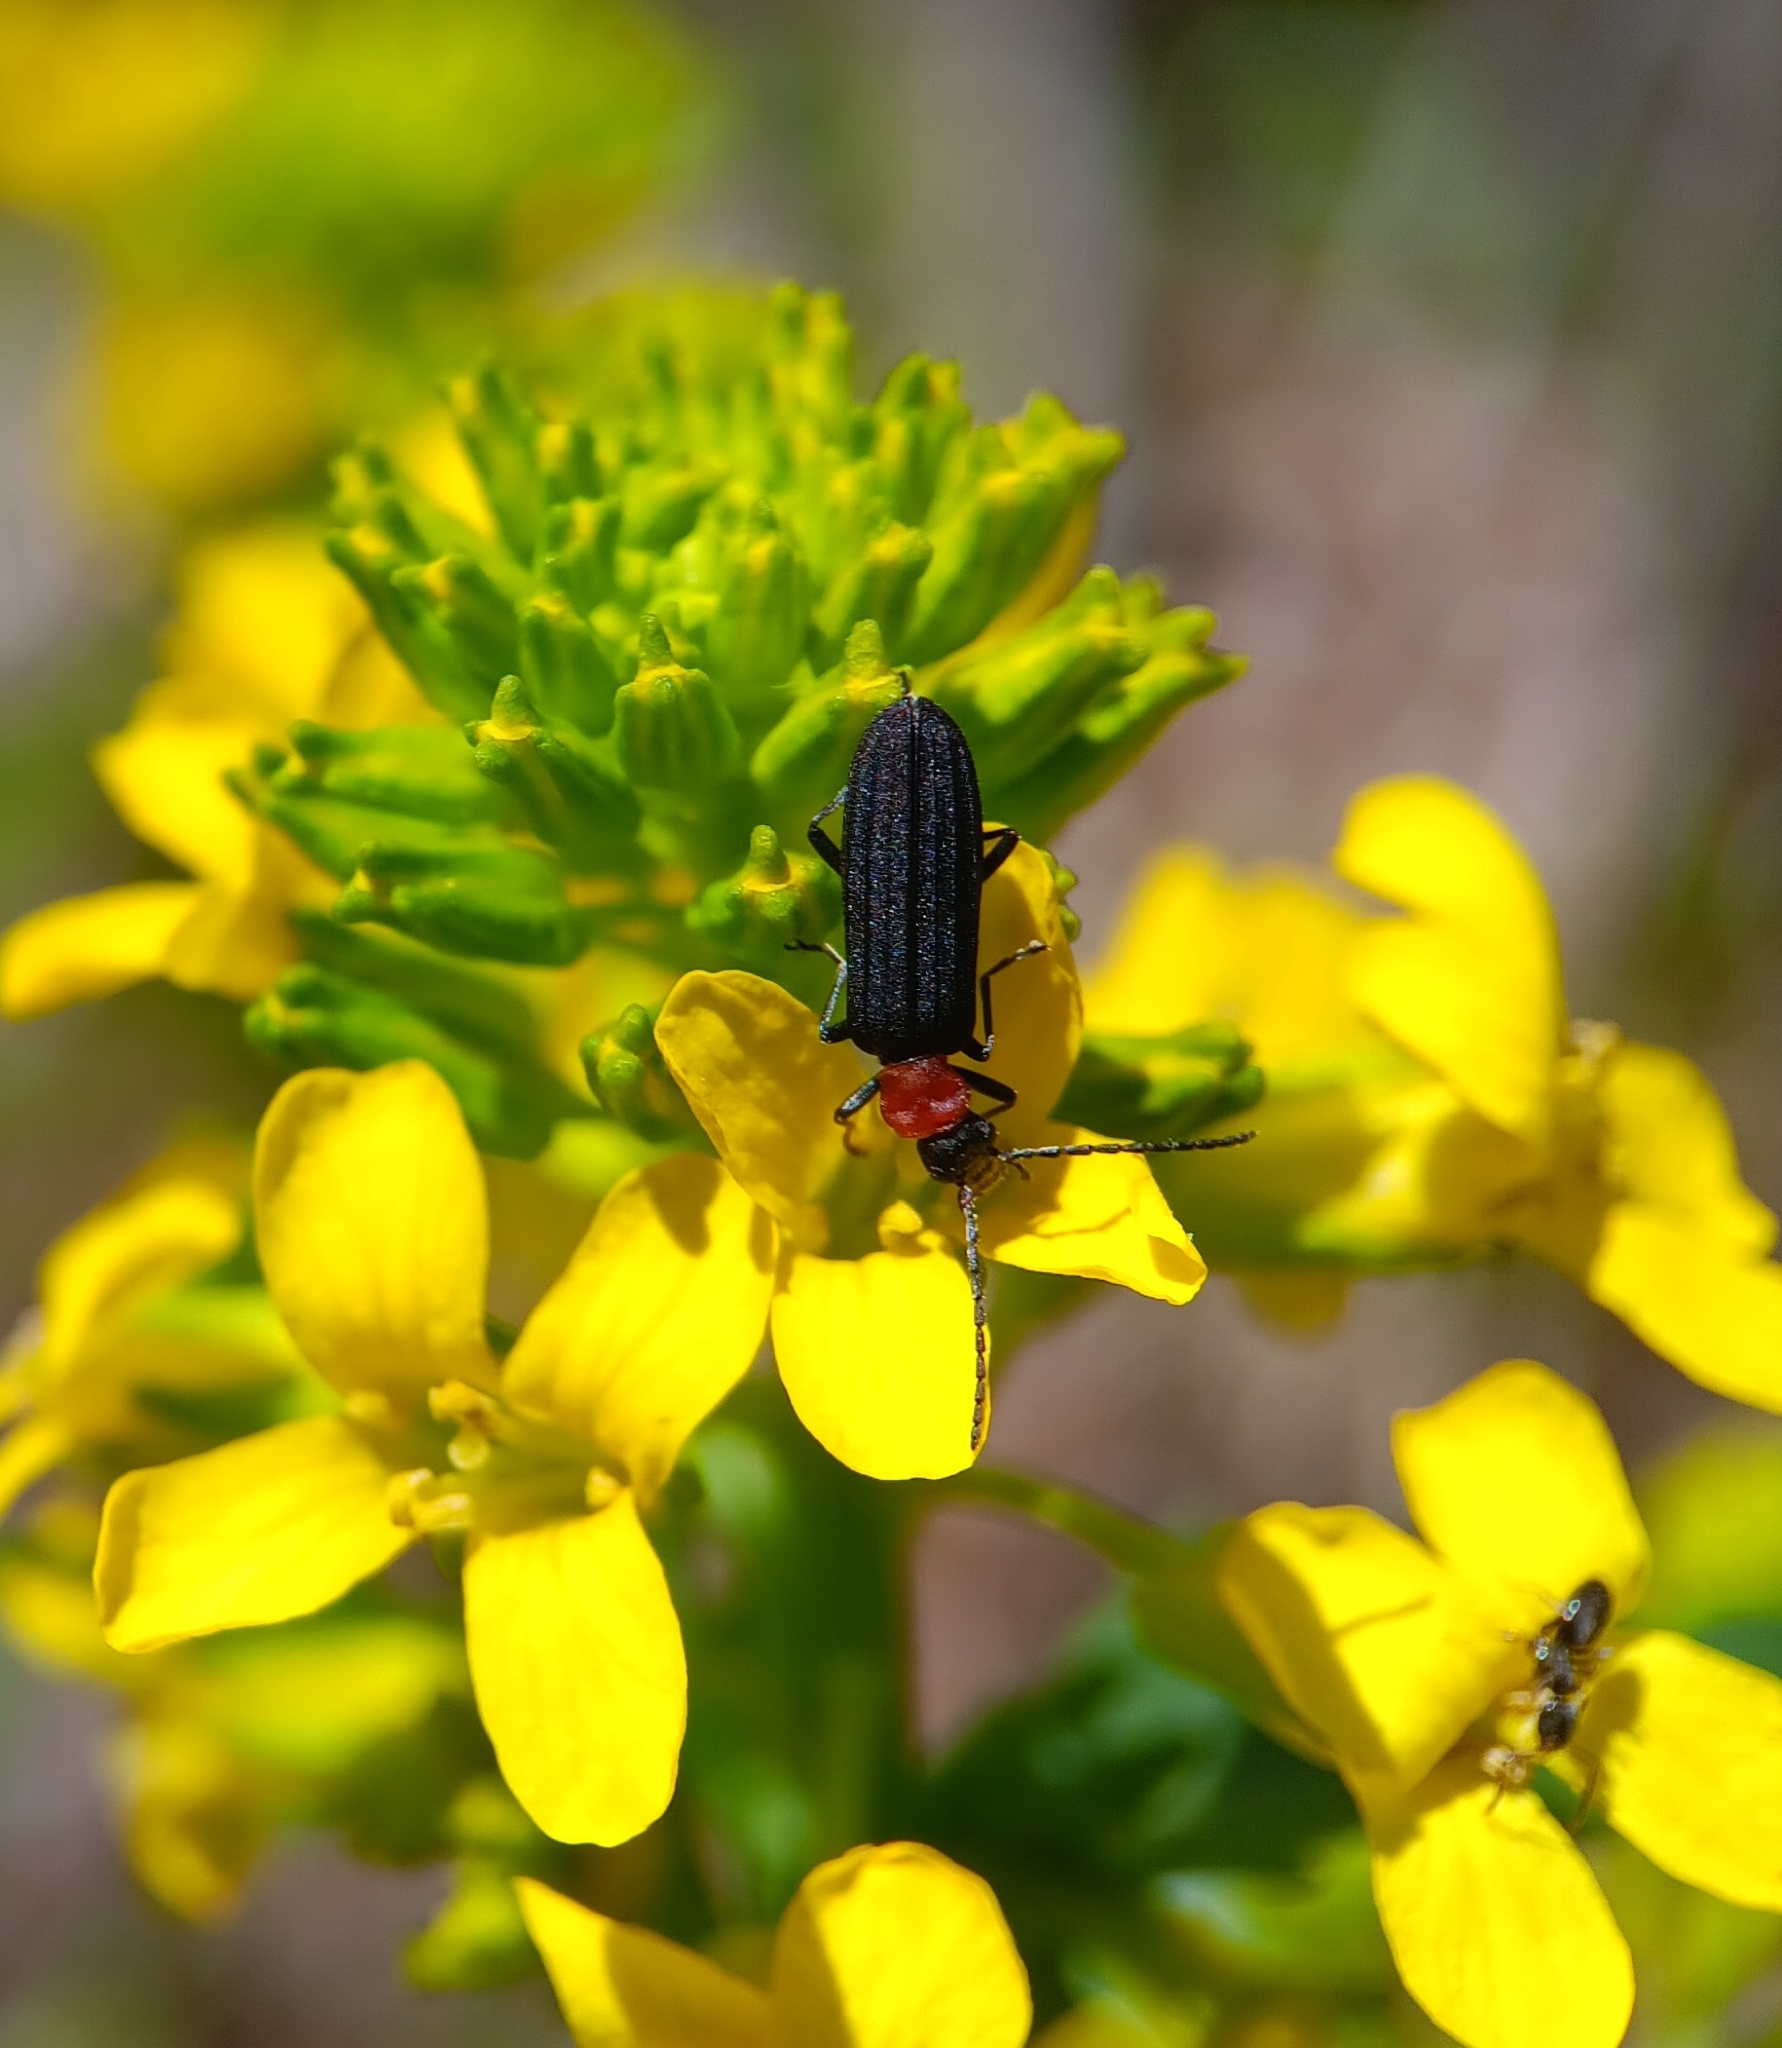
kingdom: Animalia
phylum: Arthropoda
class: Insecta
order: Coleoptera
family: Oedemeridae
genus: Ischnomera
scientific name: Ischnomera
